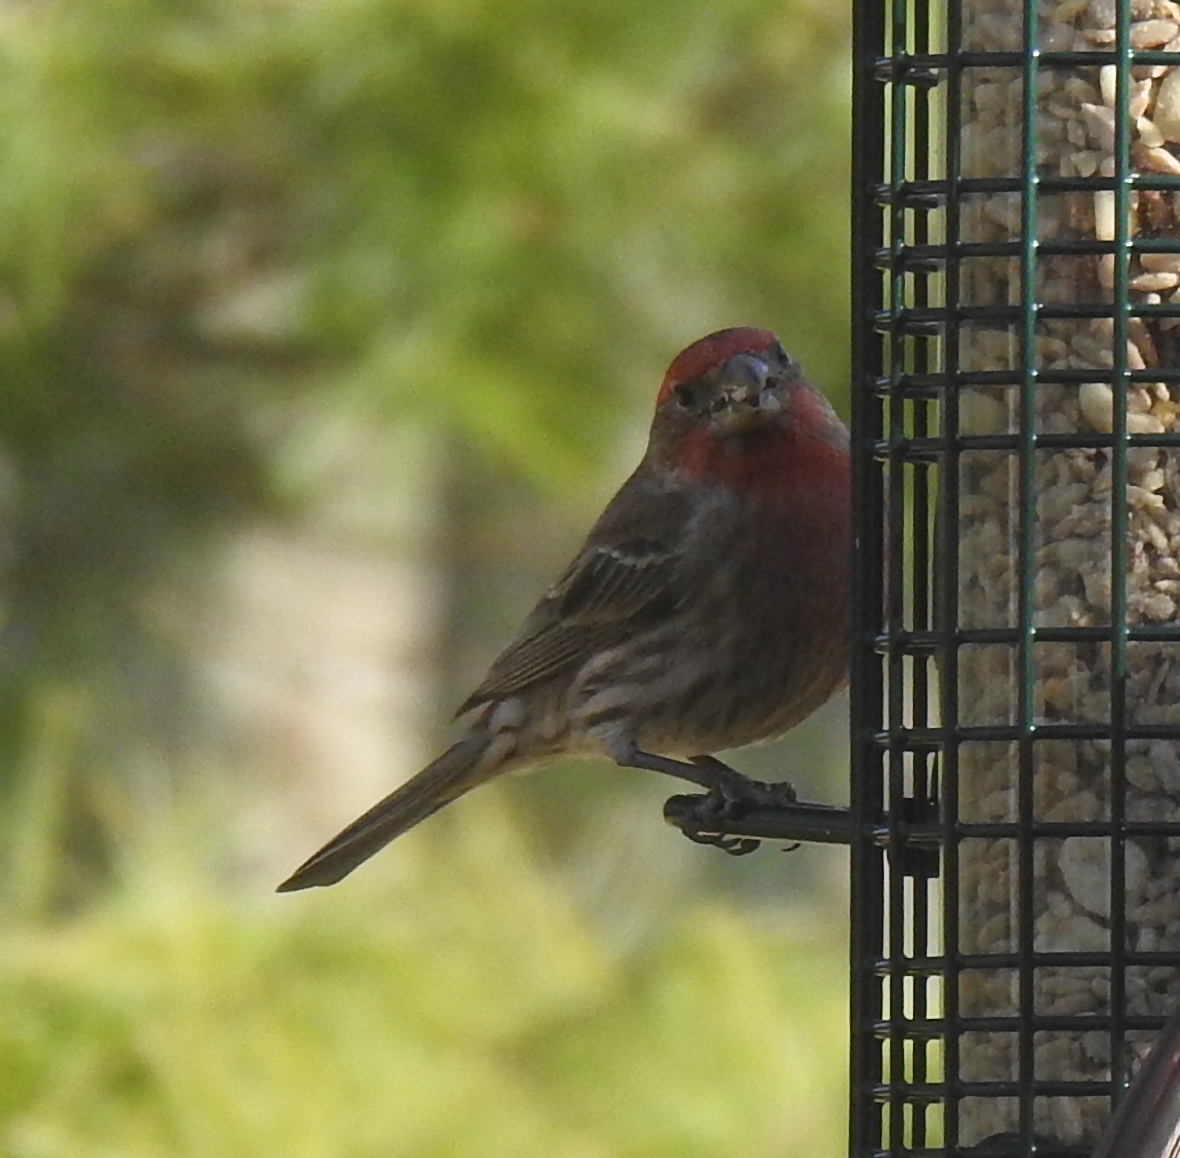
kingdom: Animalia
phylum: Chordata
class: Aves
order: Passeriformes
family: Fringillidae
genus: Haemorhous
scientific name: Haemorhous mexicanus
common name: House finch
